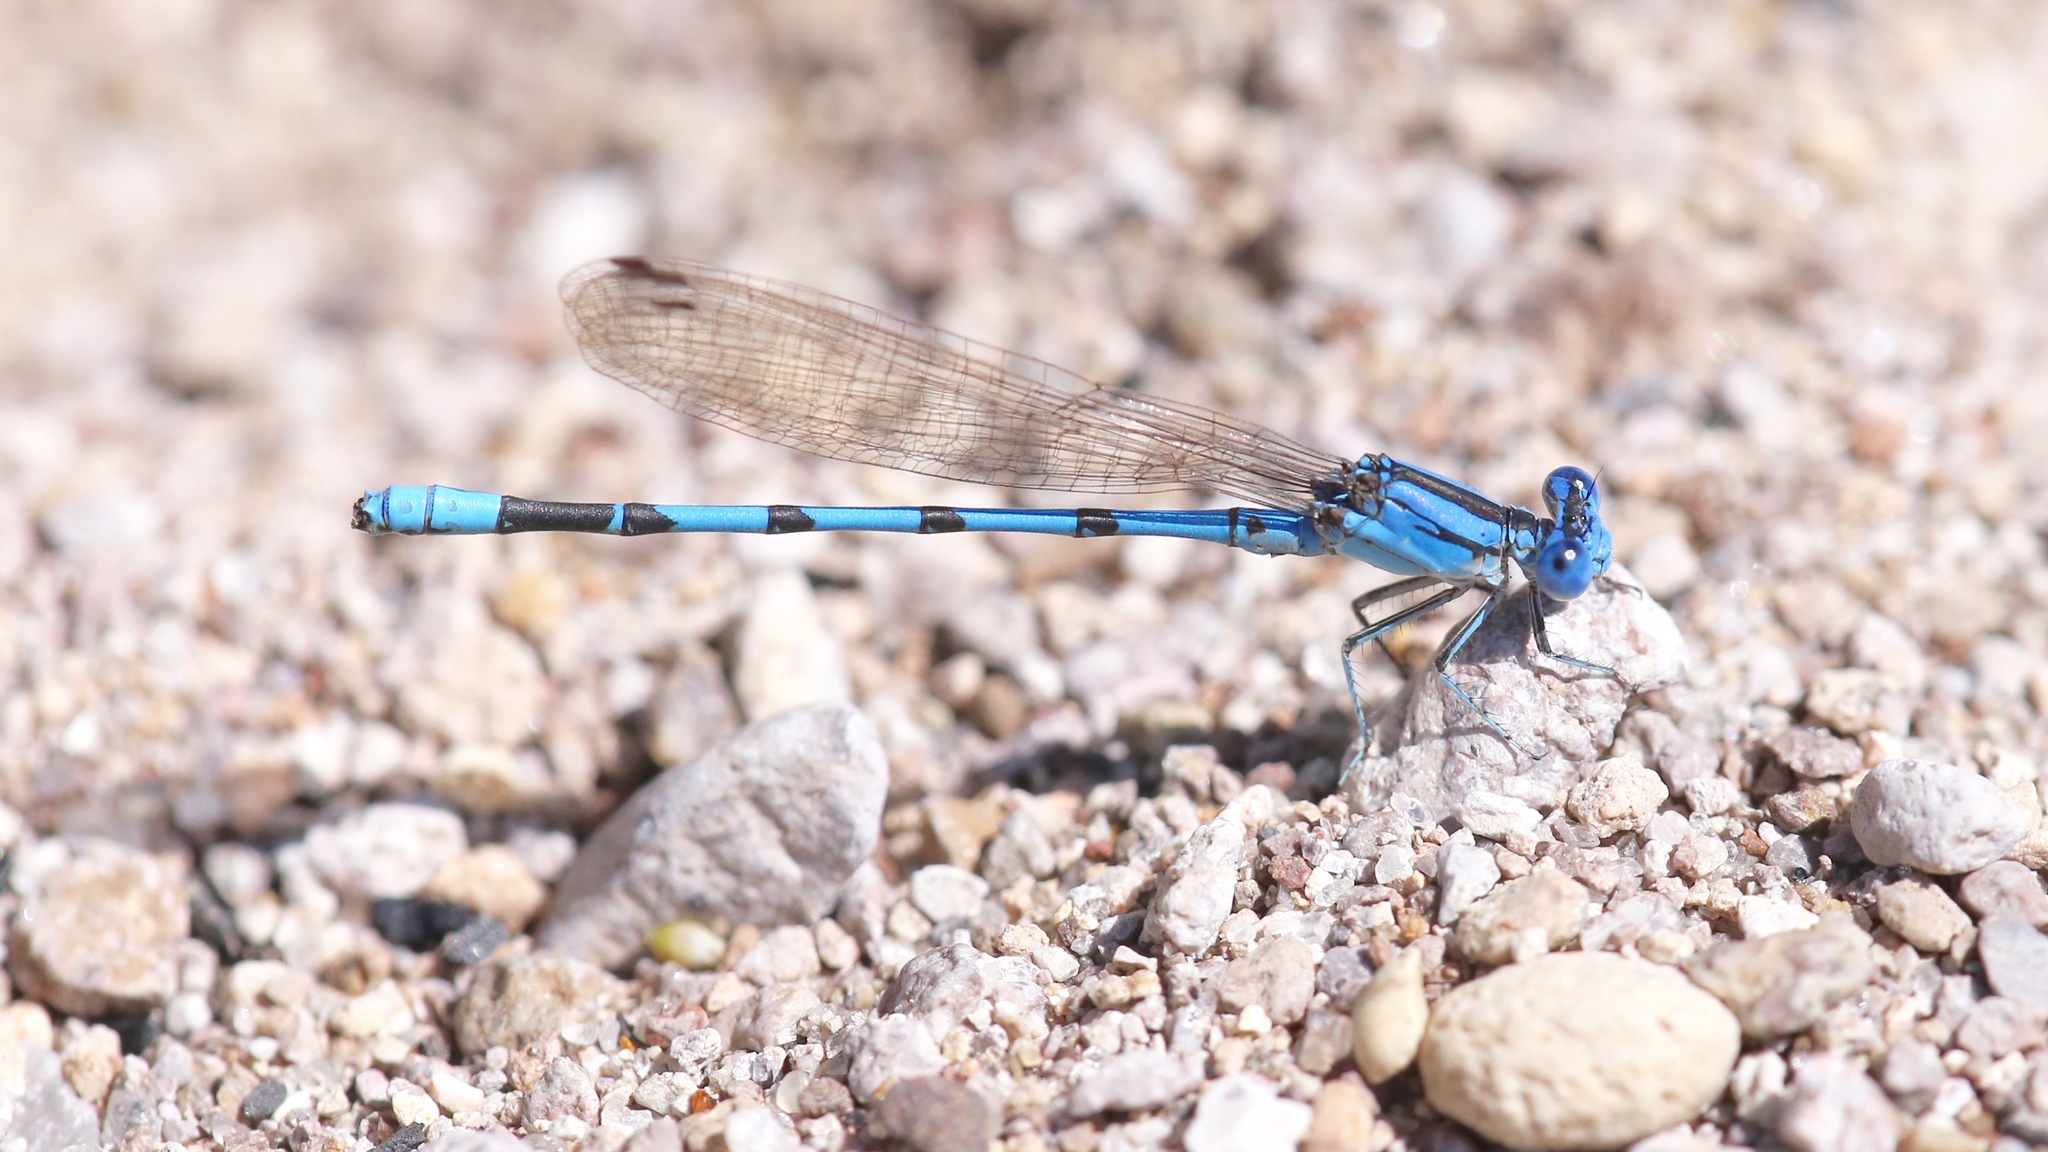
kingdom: Animalia
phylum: Arthropoda
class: Insecta
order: Odonata
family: Coenagrionidae
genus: Argia
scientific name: Argia nahuana
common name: Aztec dancer
